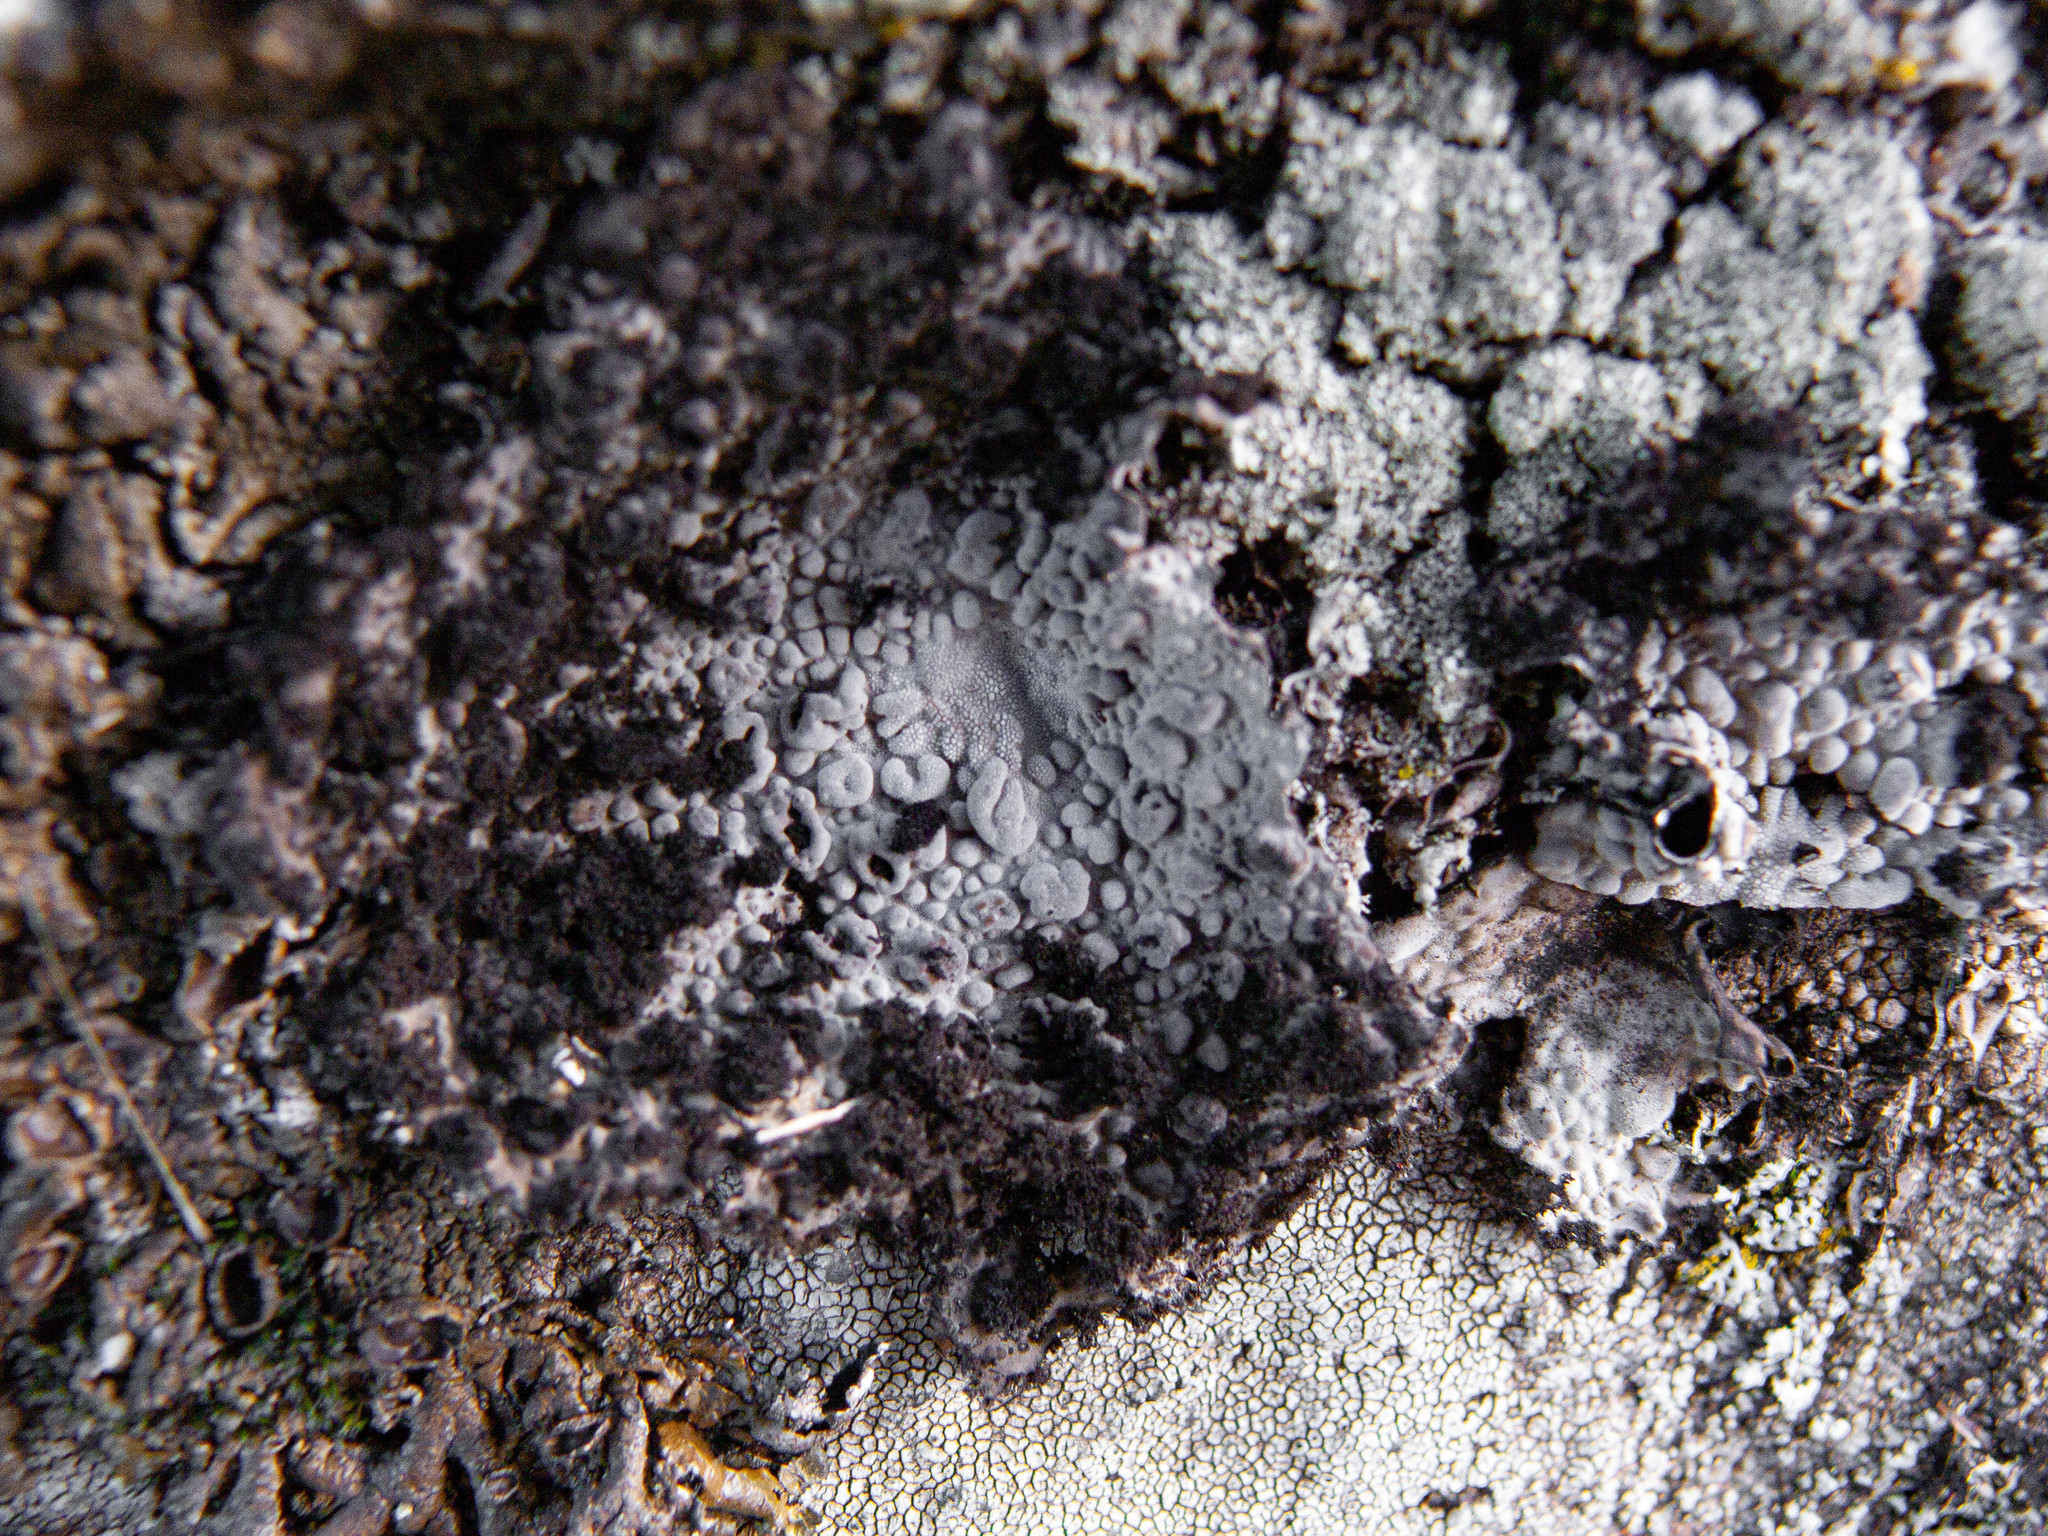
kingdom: Fungi
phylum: Ascomycota
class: Lecanoromycetes
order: Umbilicariales
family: Umbilicariaceae
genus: Lasallia
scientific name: Lasallia pustulata
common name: Blistered toadskin lichen
